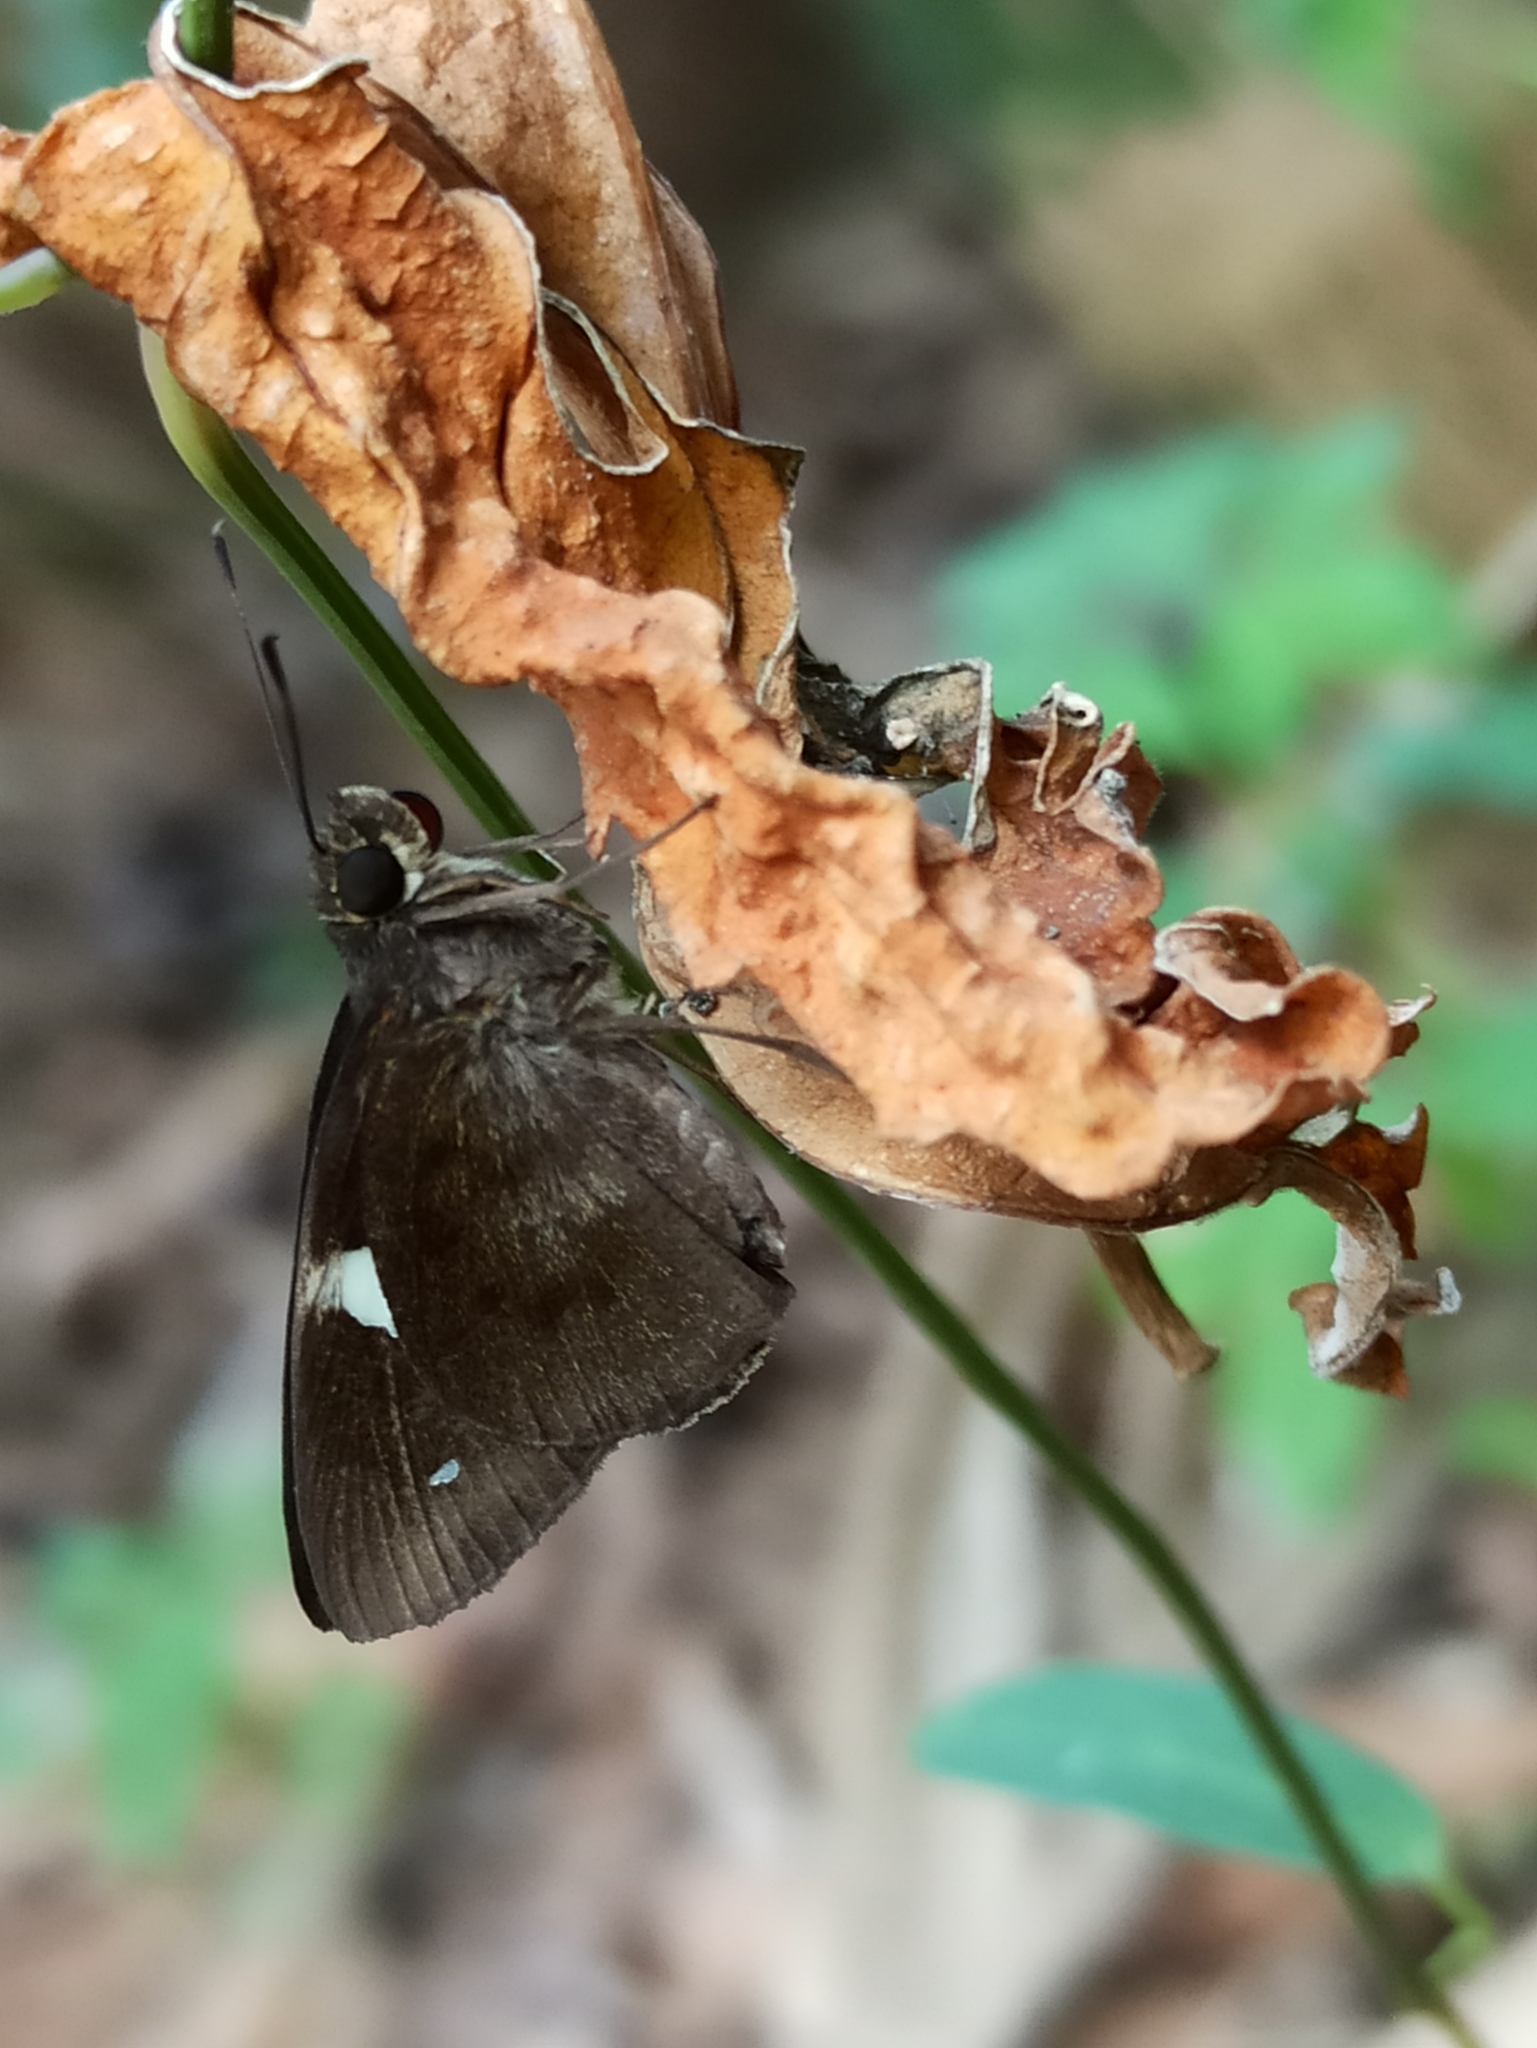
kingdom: Animalia
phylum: Arthropoda
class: Insecta
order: Lepidoptera
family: Hesperiidae
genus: Notocrypta
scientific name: Notocrypta paralysos
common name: Common banded demon
